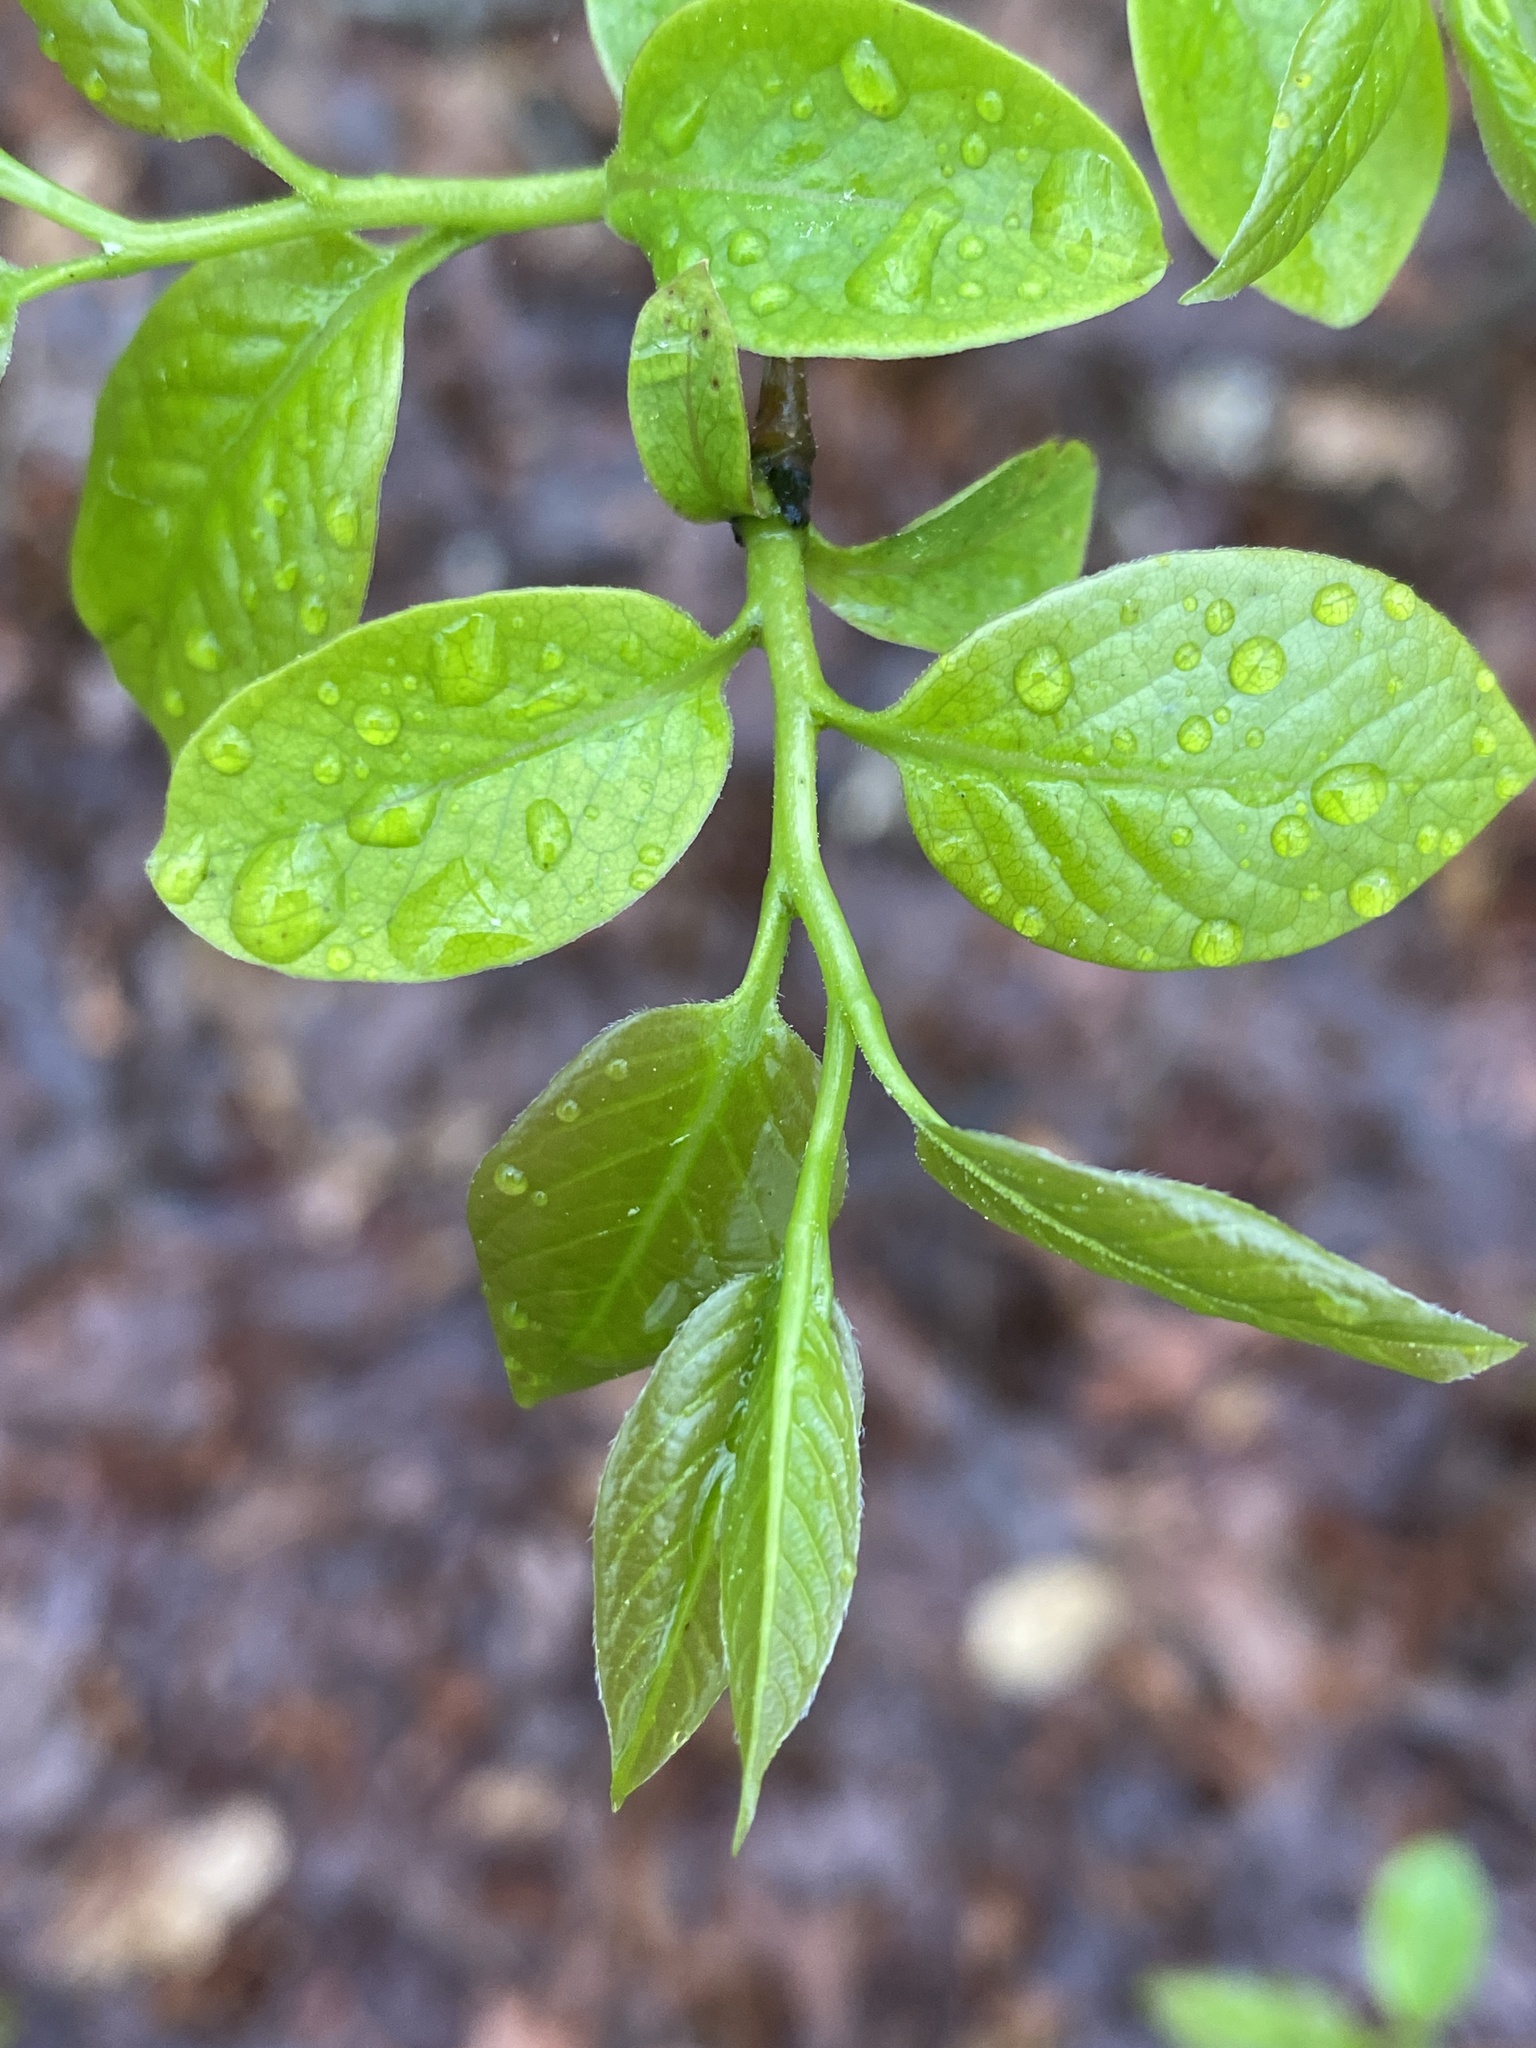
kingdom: Plantae
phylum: Tracheophyta
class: Magnoliopsida
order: Ericales
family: Ebenaceae
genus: Diospyros
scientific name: Diospyros virginiana
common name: Persimmon
